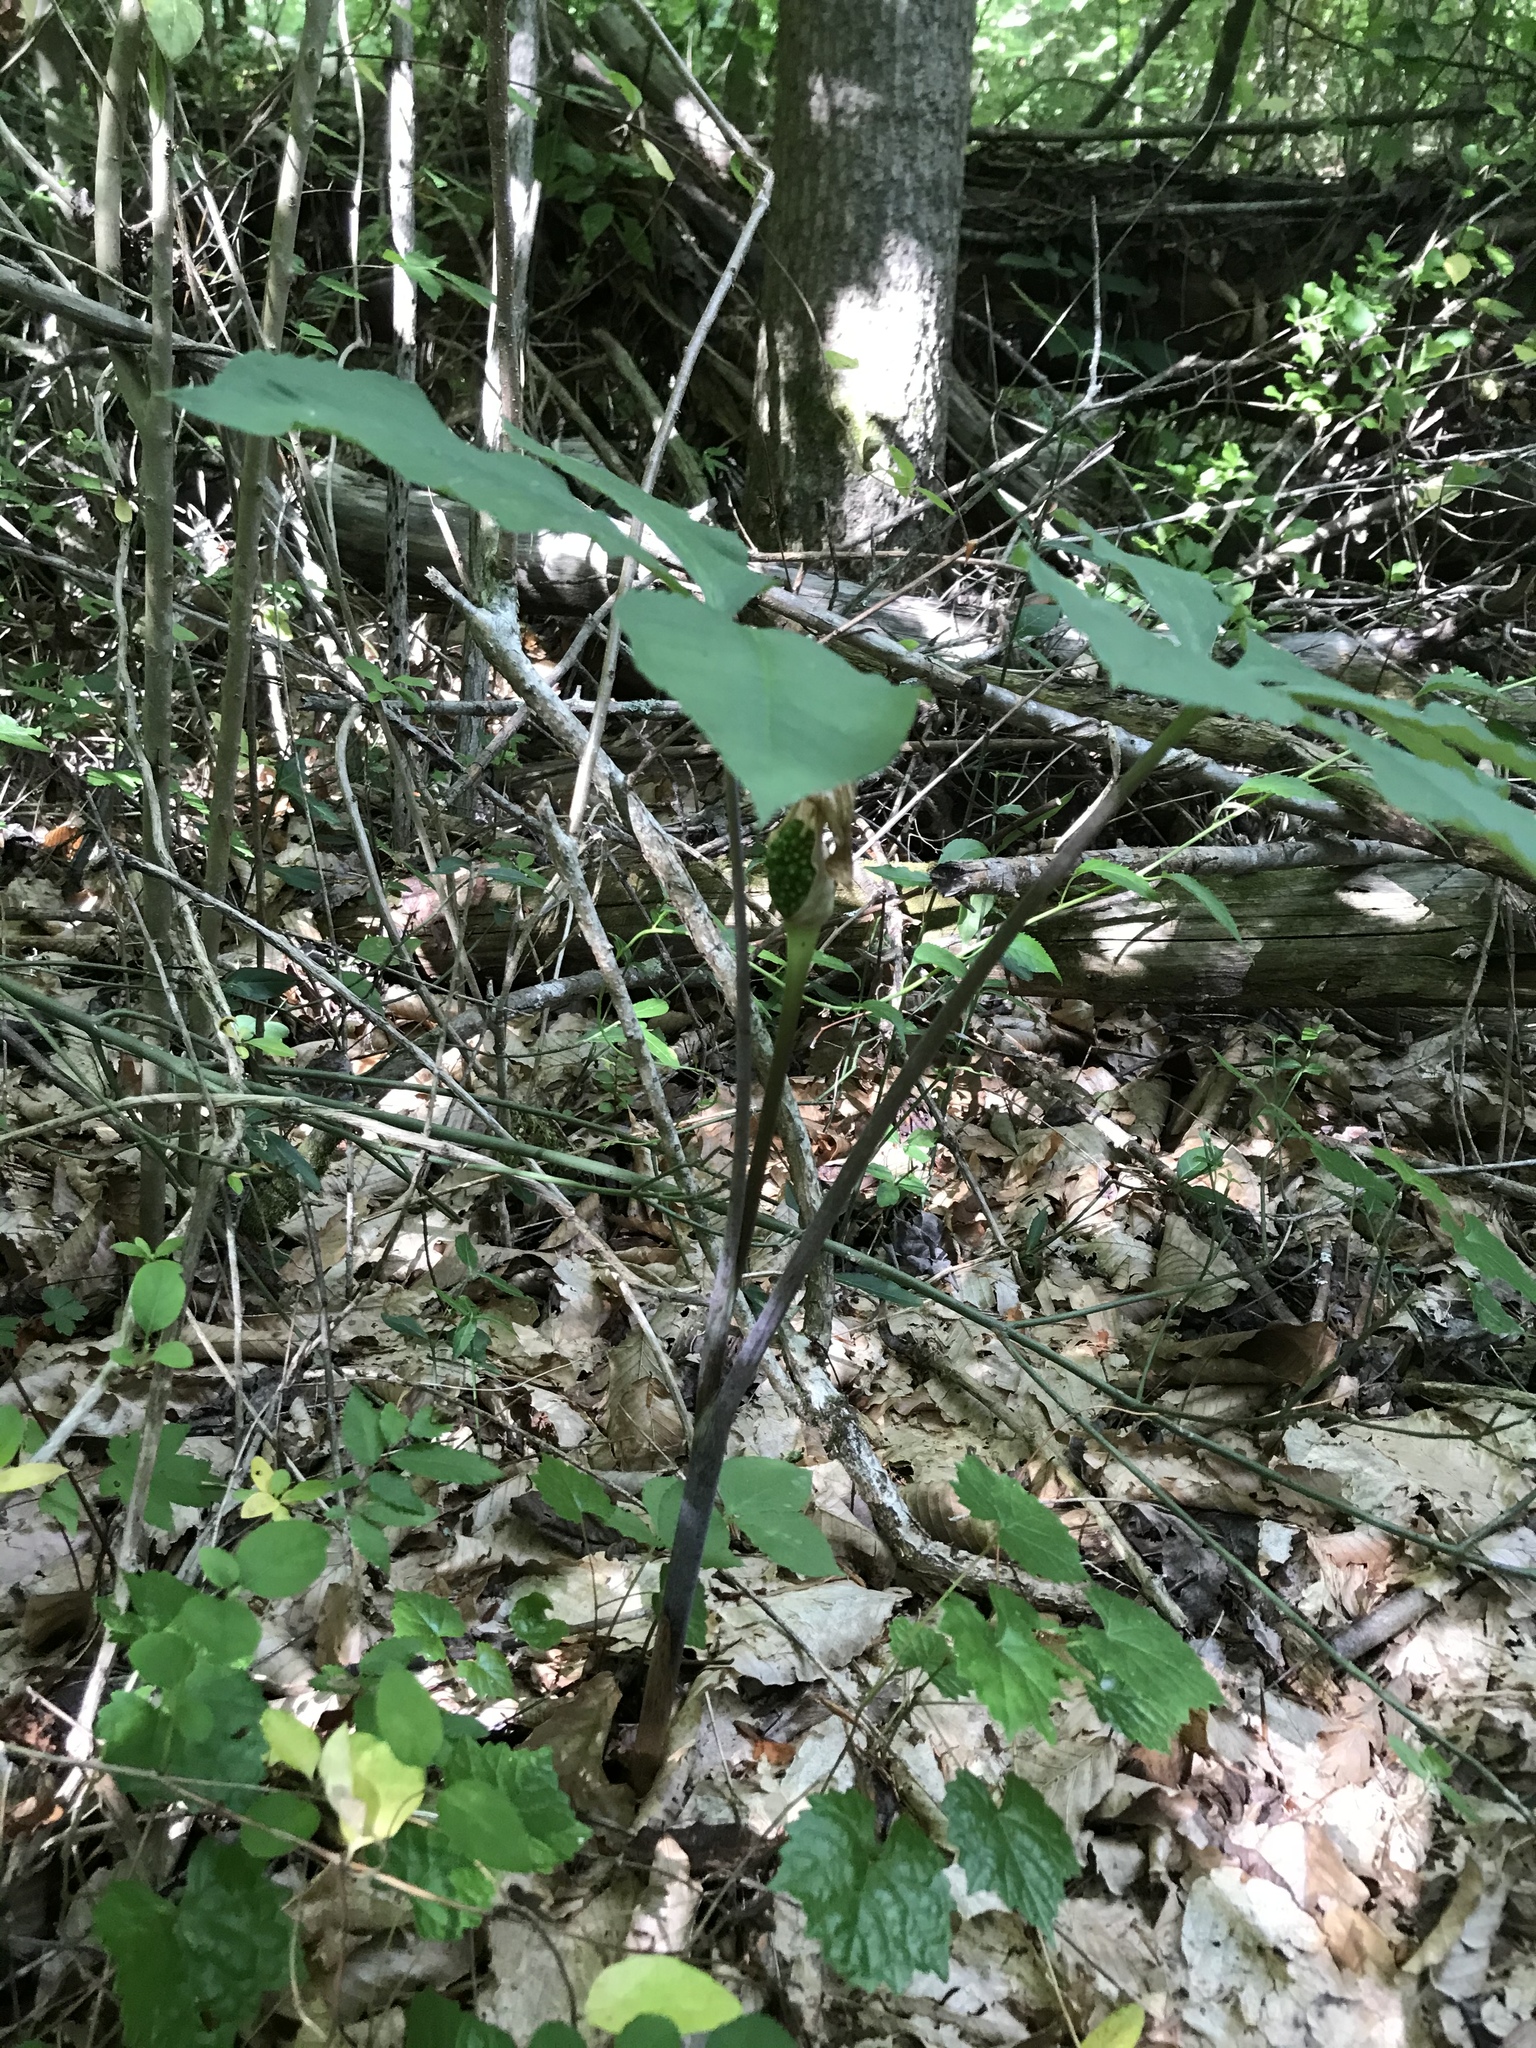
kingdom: Plantae
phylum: Tracheophyta
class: Liliopsida
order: Alismatales
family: Araceae
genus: Arisaema
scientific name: Arisaema quinatum
